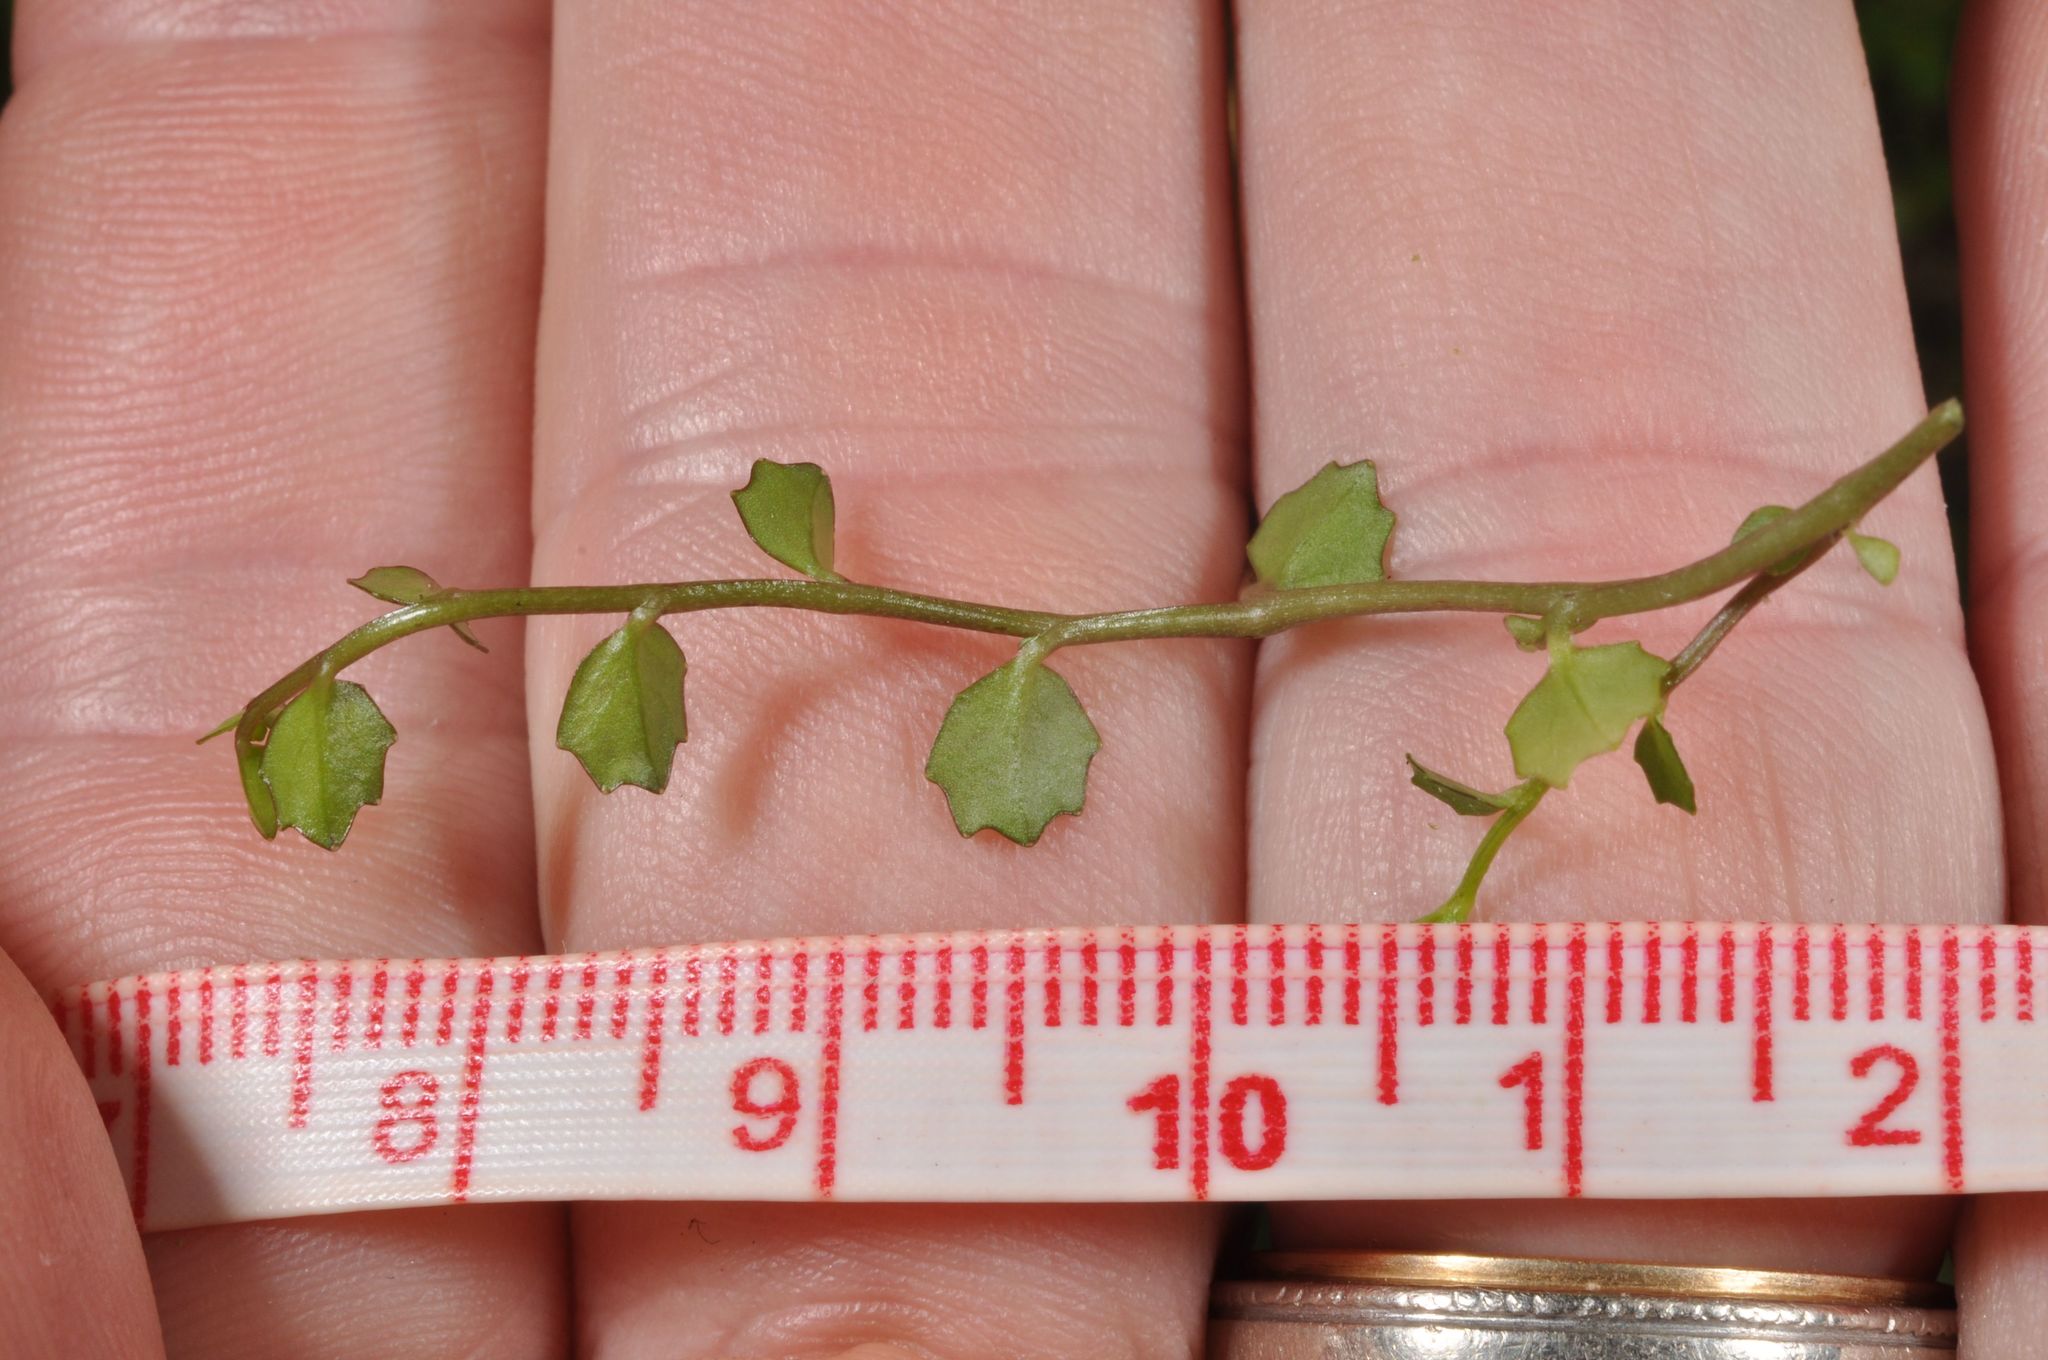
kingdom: Plantae
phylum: Tracheophyta
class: Magnoliopsida
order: Asterales
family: Campanulaceae
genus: Lobelia
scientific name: Lobelia angulata
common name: Lawn lobelia
